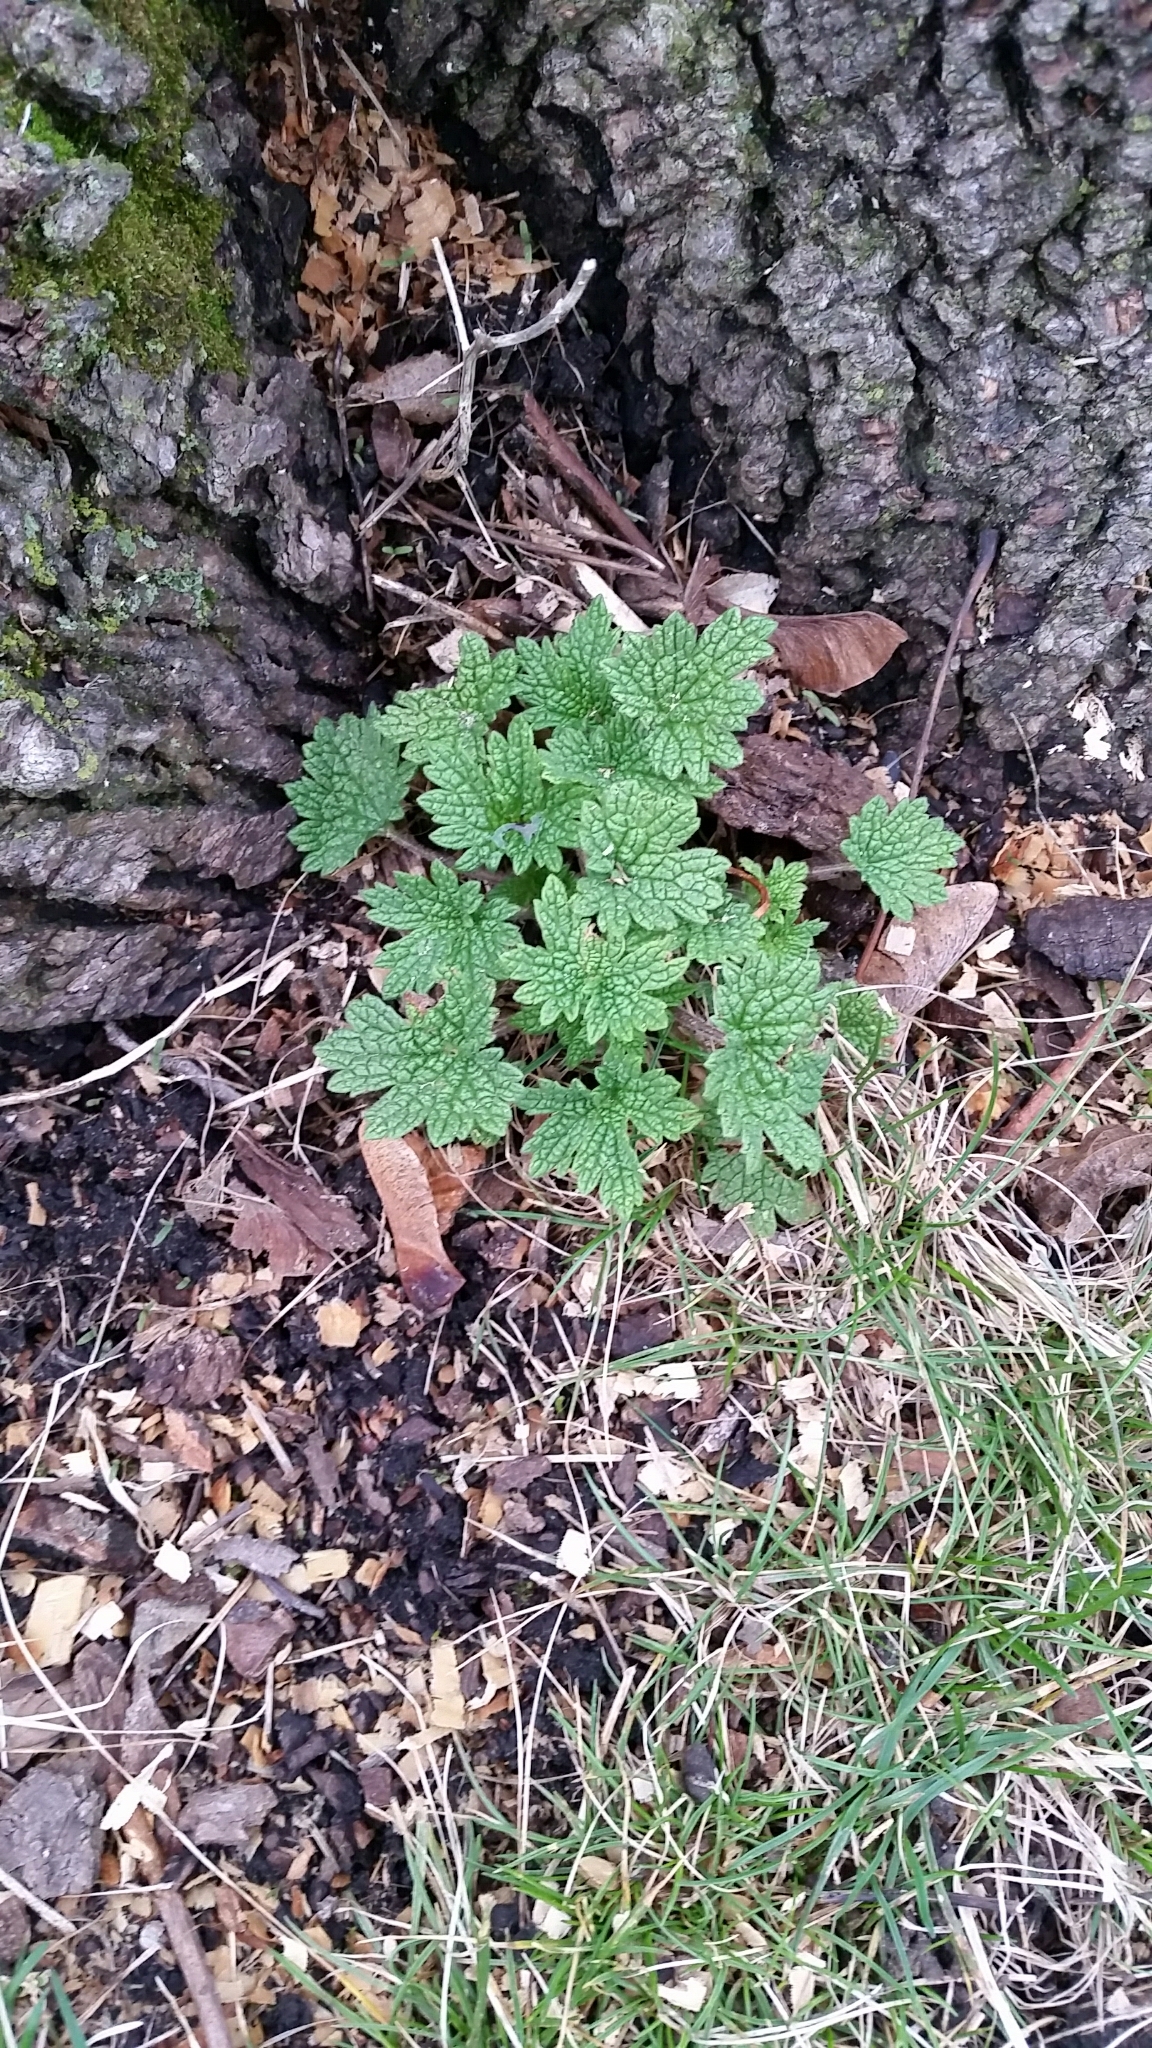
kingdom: Plantae
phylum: Tracheophyta
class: Magnoliopsida
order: Lamiales
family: Lamiaceae
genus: Leonurus
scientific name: Leonurus cardiaca
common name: Motherwort
